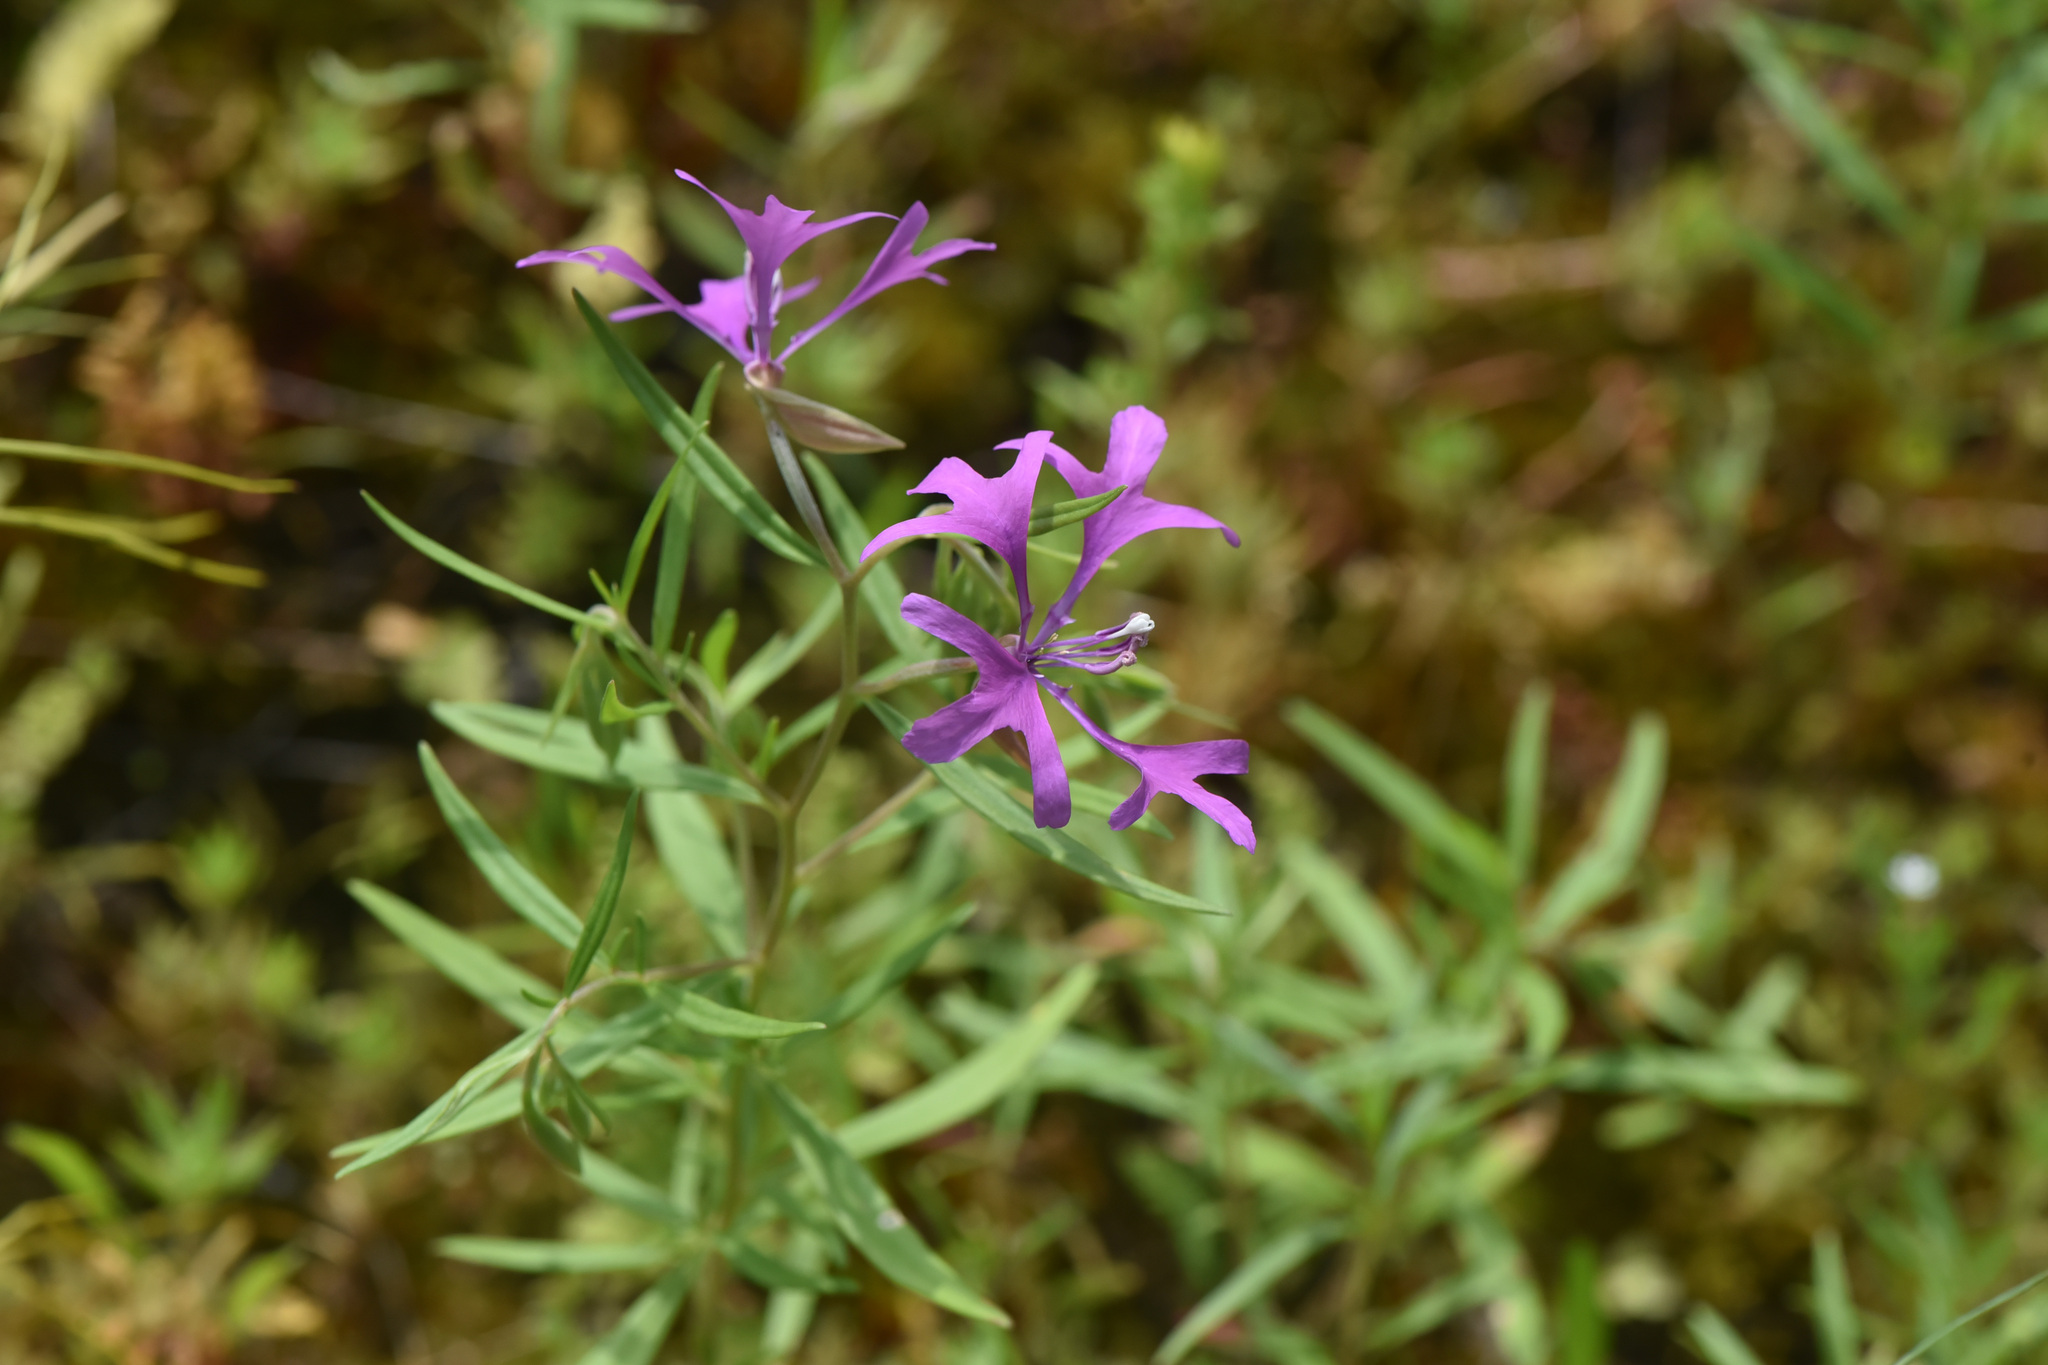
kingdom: Plantae
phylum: Tracheophyta
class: Magnoliopsida
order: Myrtales
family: Onagraceae
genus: Clarkia
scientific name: Clarkia pulchella
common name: Deer horn
